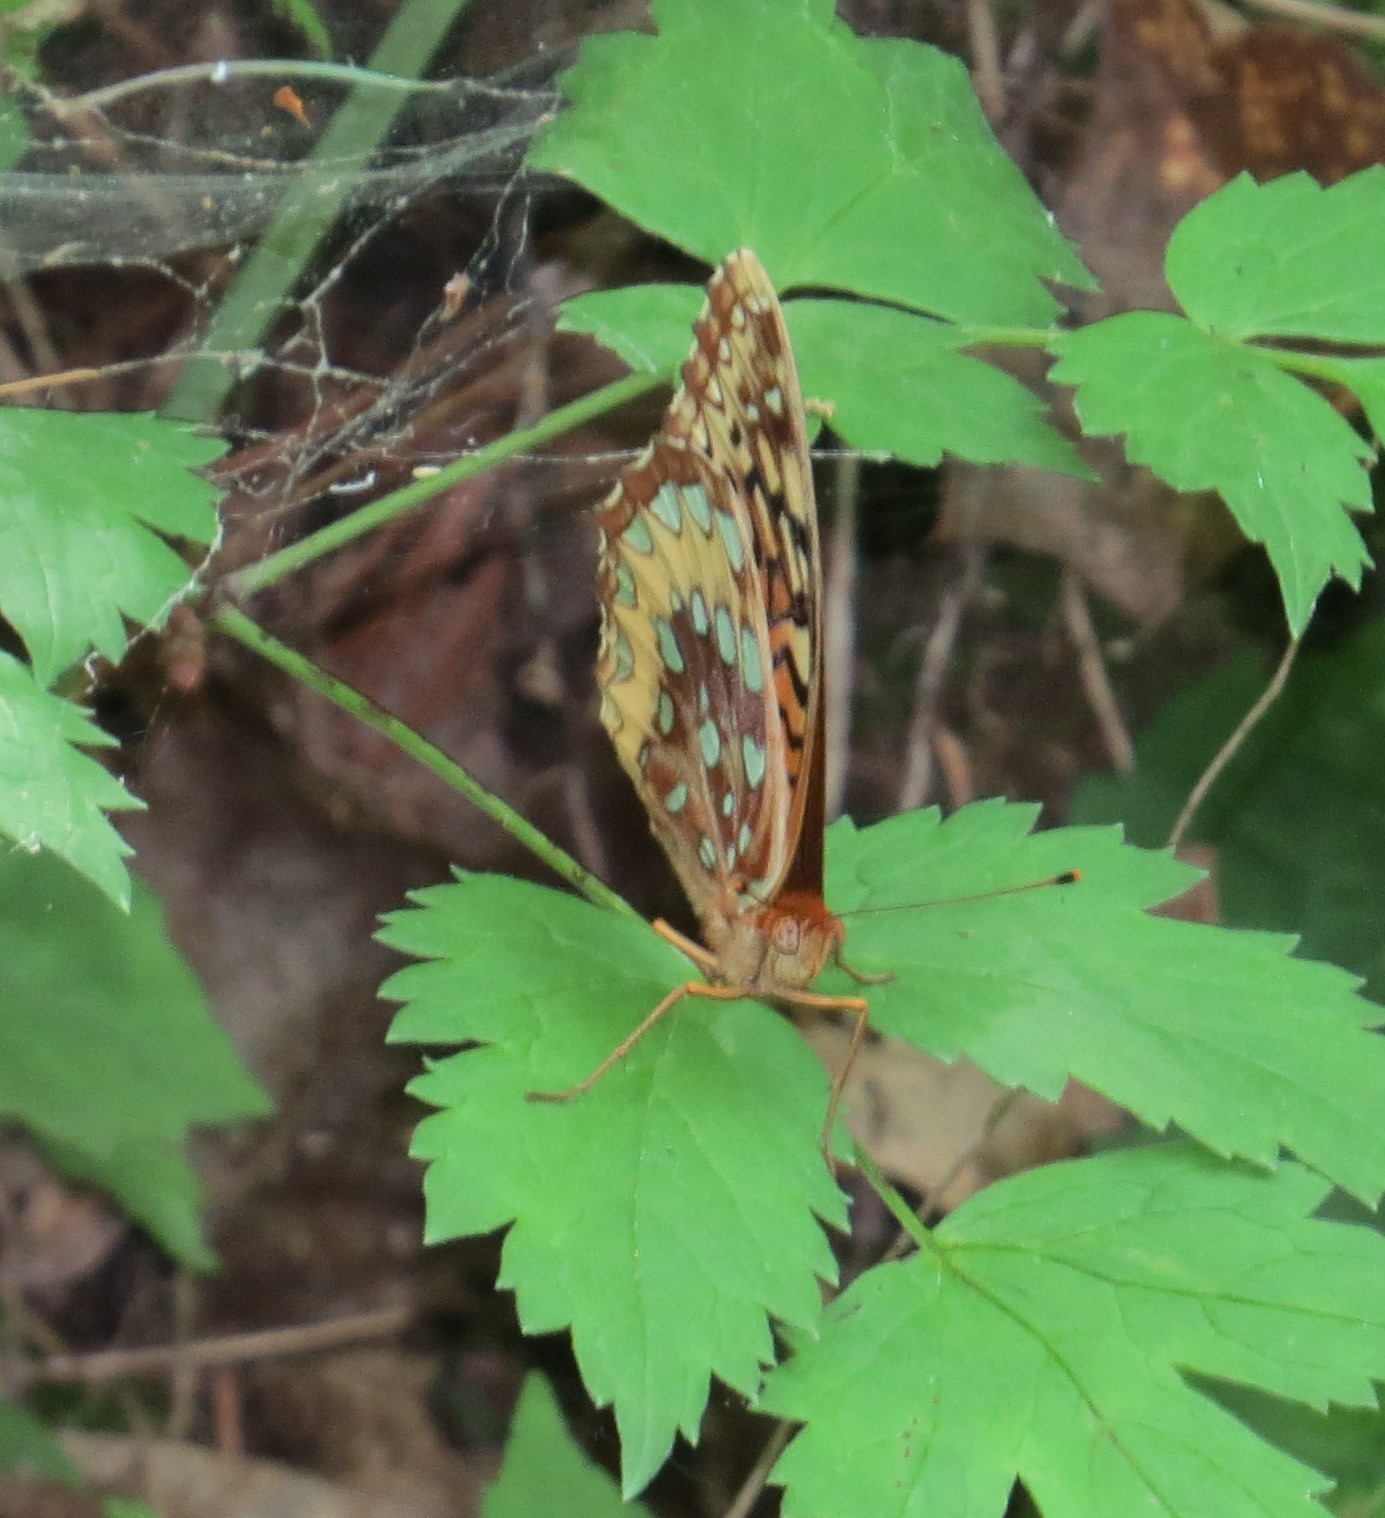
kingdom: Animalia
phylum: Arthropoda
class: Insecta
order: Lepidoptera
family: Nymphalidae
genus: Speyeria
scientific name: Speyeria cybele
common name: Great spangled fritillary
